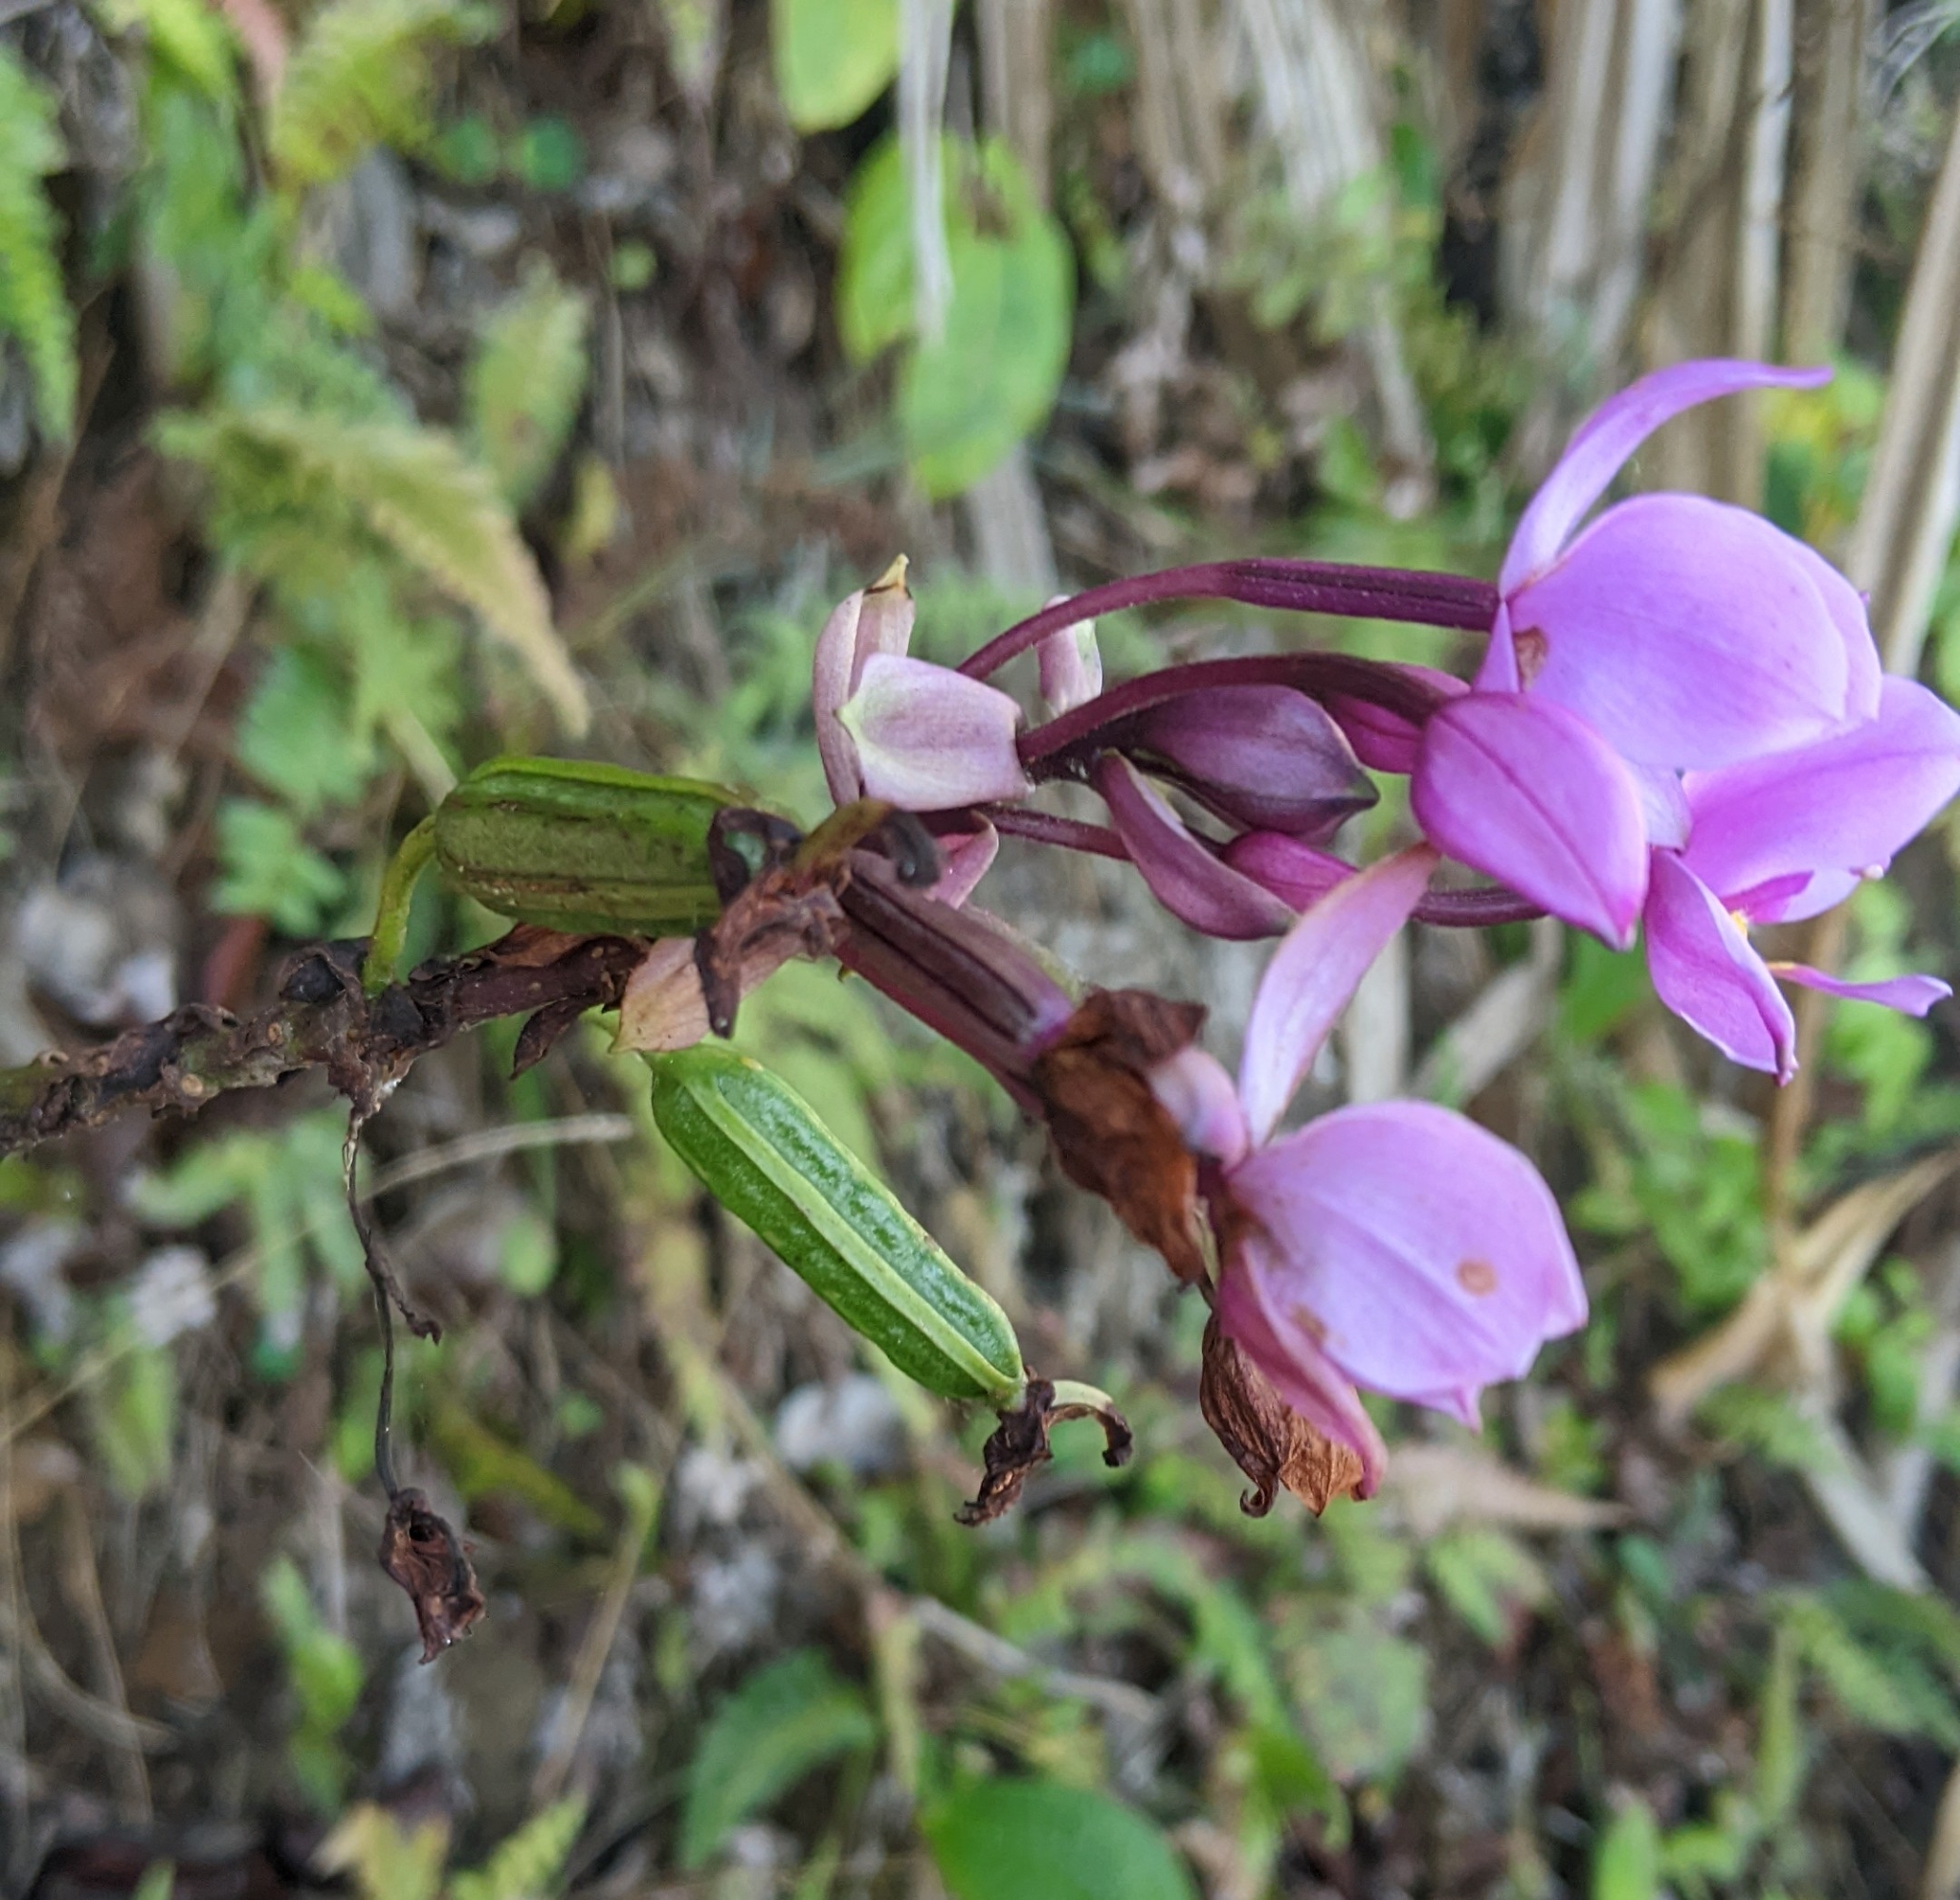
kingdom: Plantae
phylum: Tracheophyta
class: Liliopsida
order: Asparagales
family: Orchidaceae
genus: Spathoglottis
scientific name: Spathoglottis plicata
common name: Philippine ground orchid
